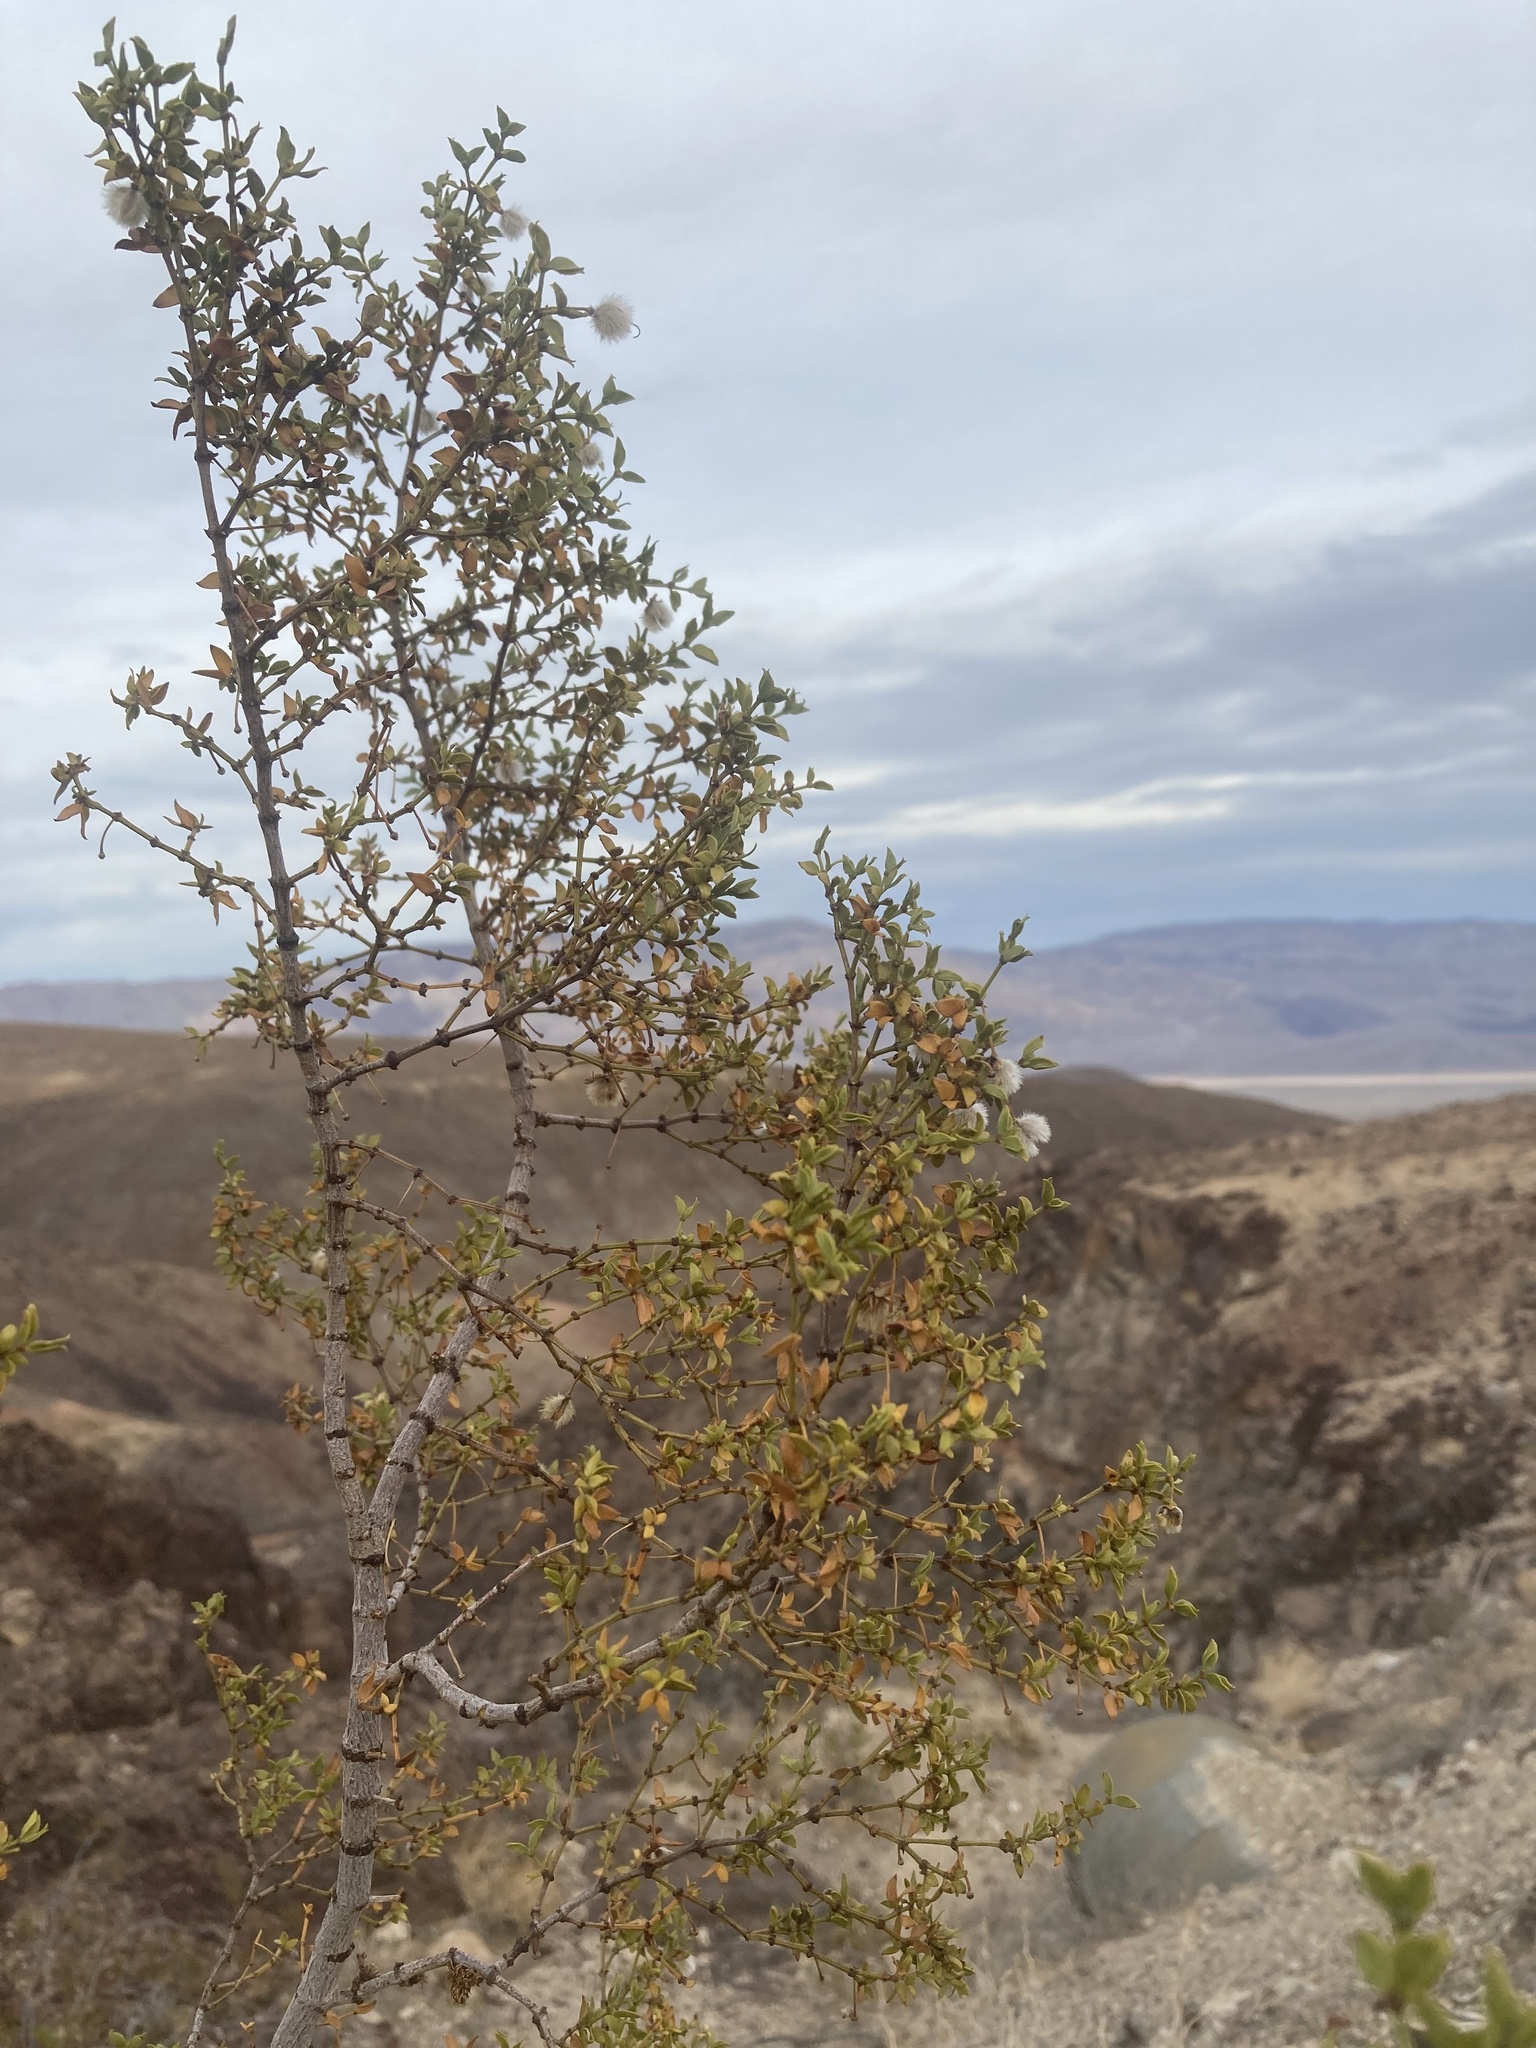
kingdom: Plantae
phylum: Tracheophyta
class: Magnoliopsida
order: Zygophyllales
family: Zygophyllaceae
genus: Larrea
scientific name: Larrea tridentata
